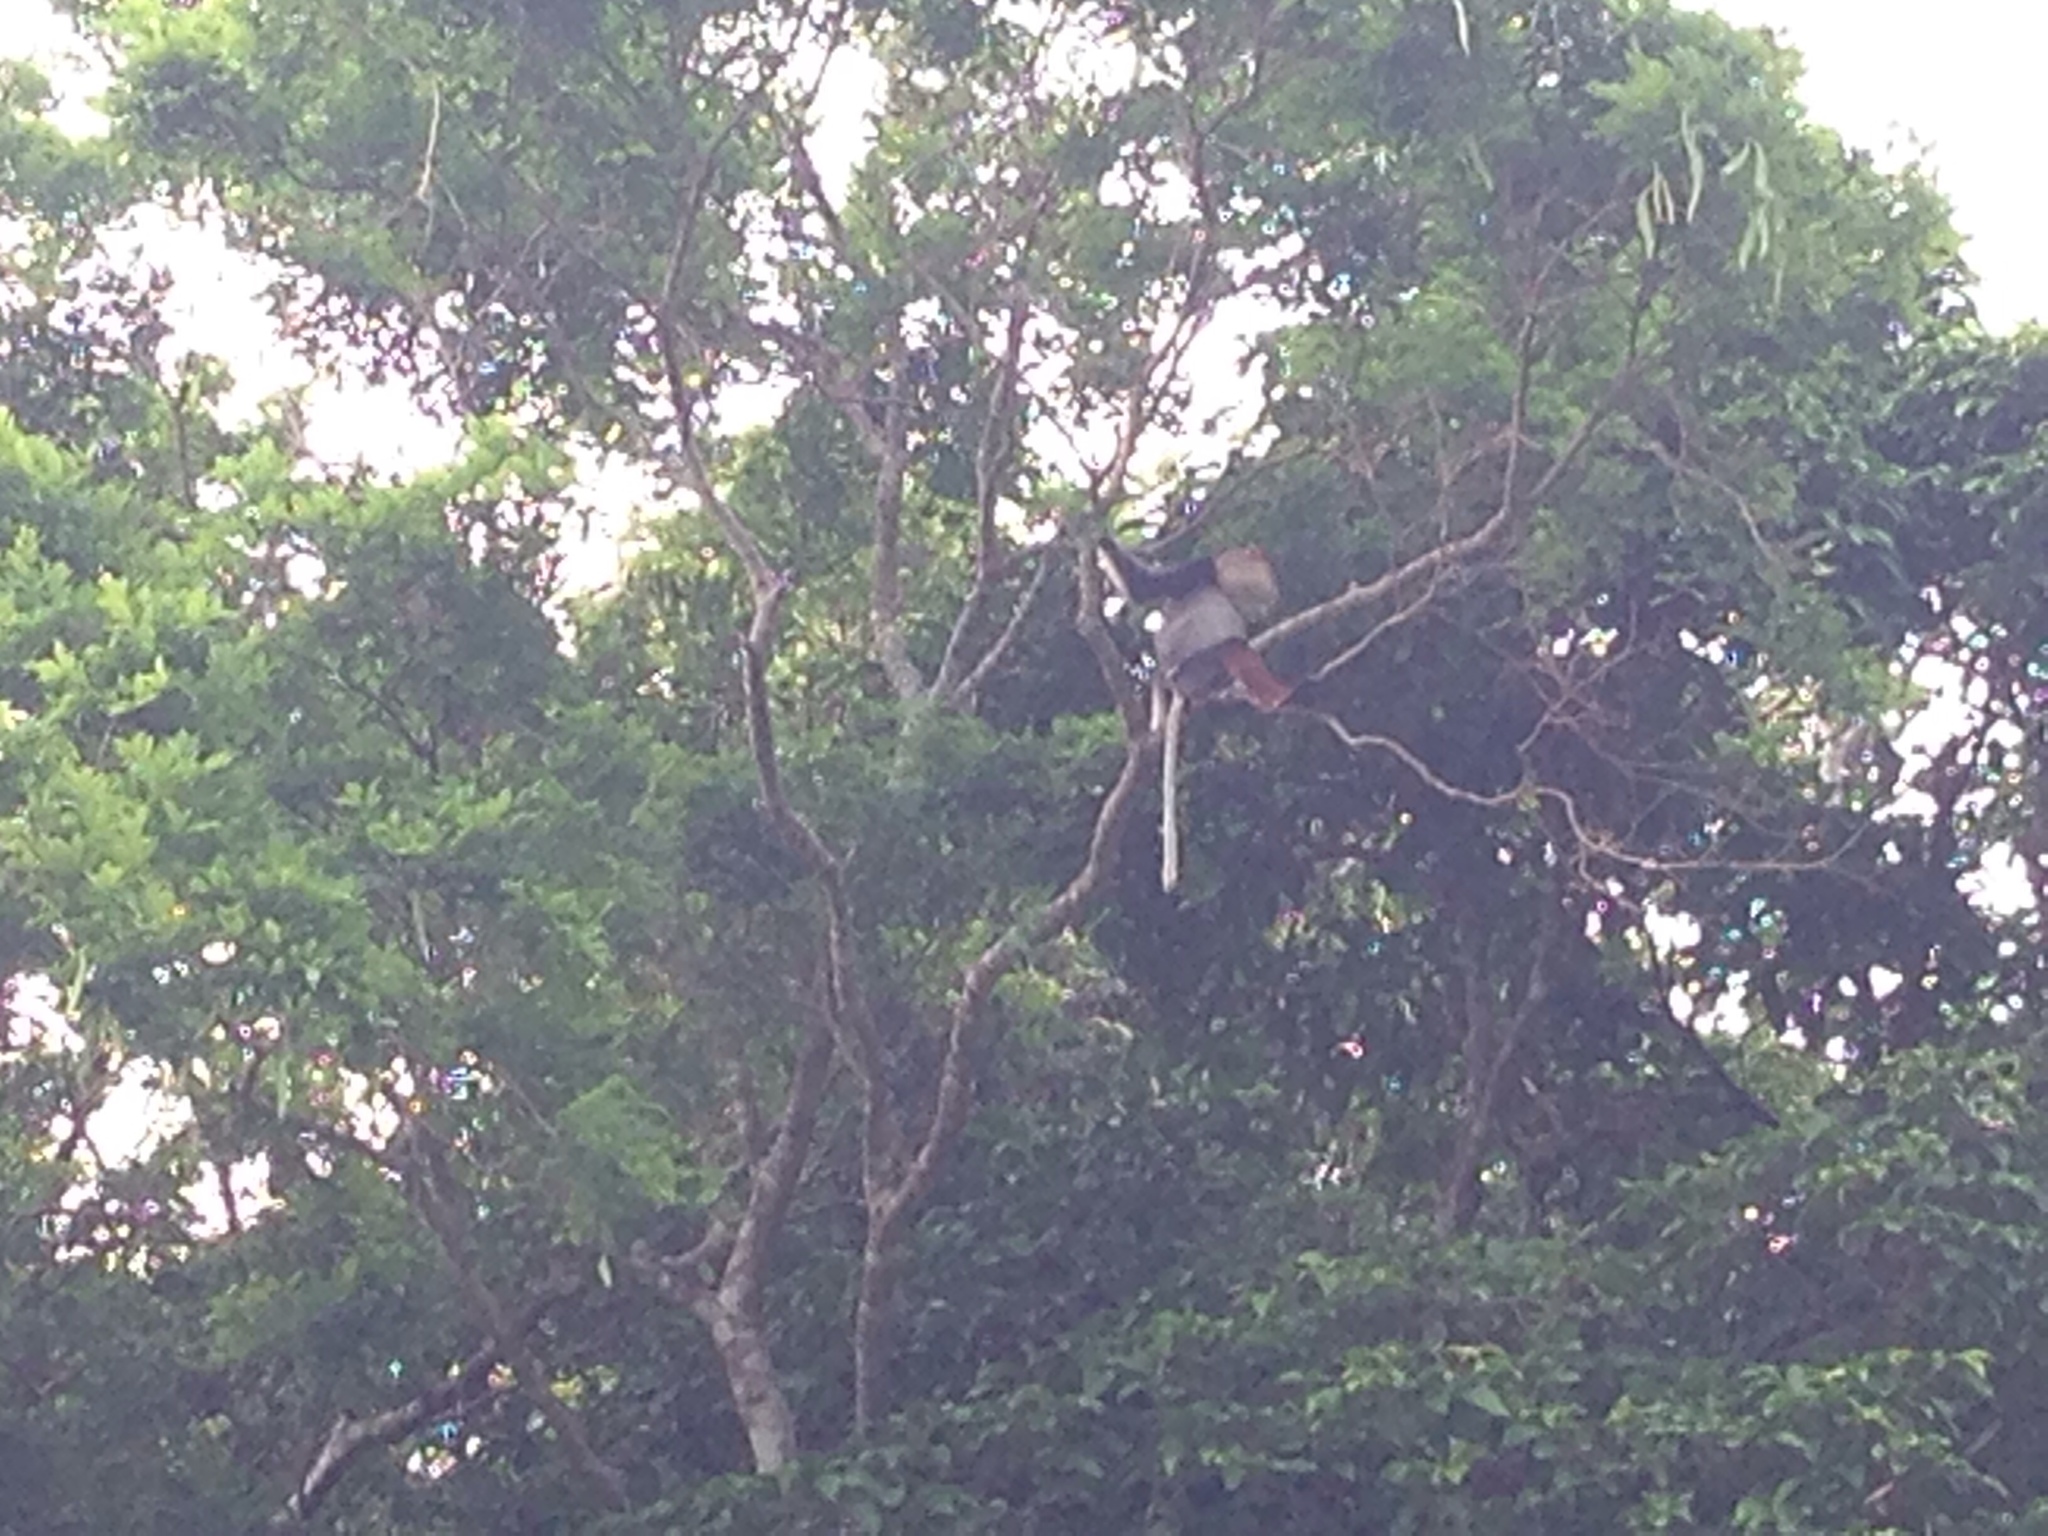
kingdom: Animalia
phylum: Chordata
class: Mammalia
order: Primates
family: Cercopithecidae
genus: Pygathrix
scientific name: Pygathrix nemaeus
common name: Red-shanked douc
